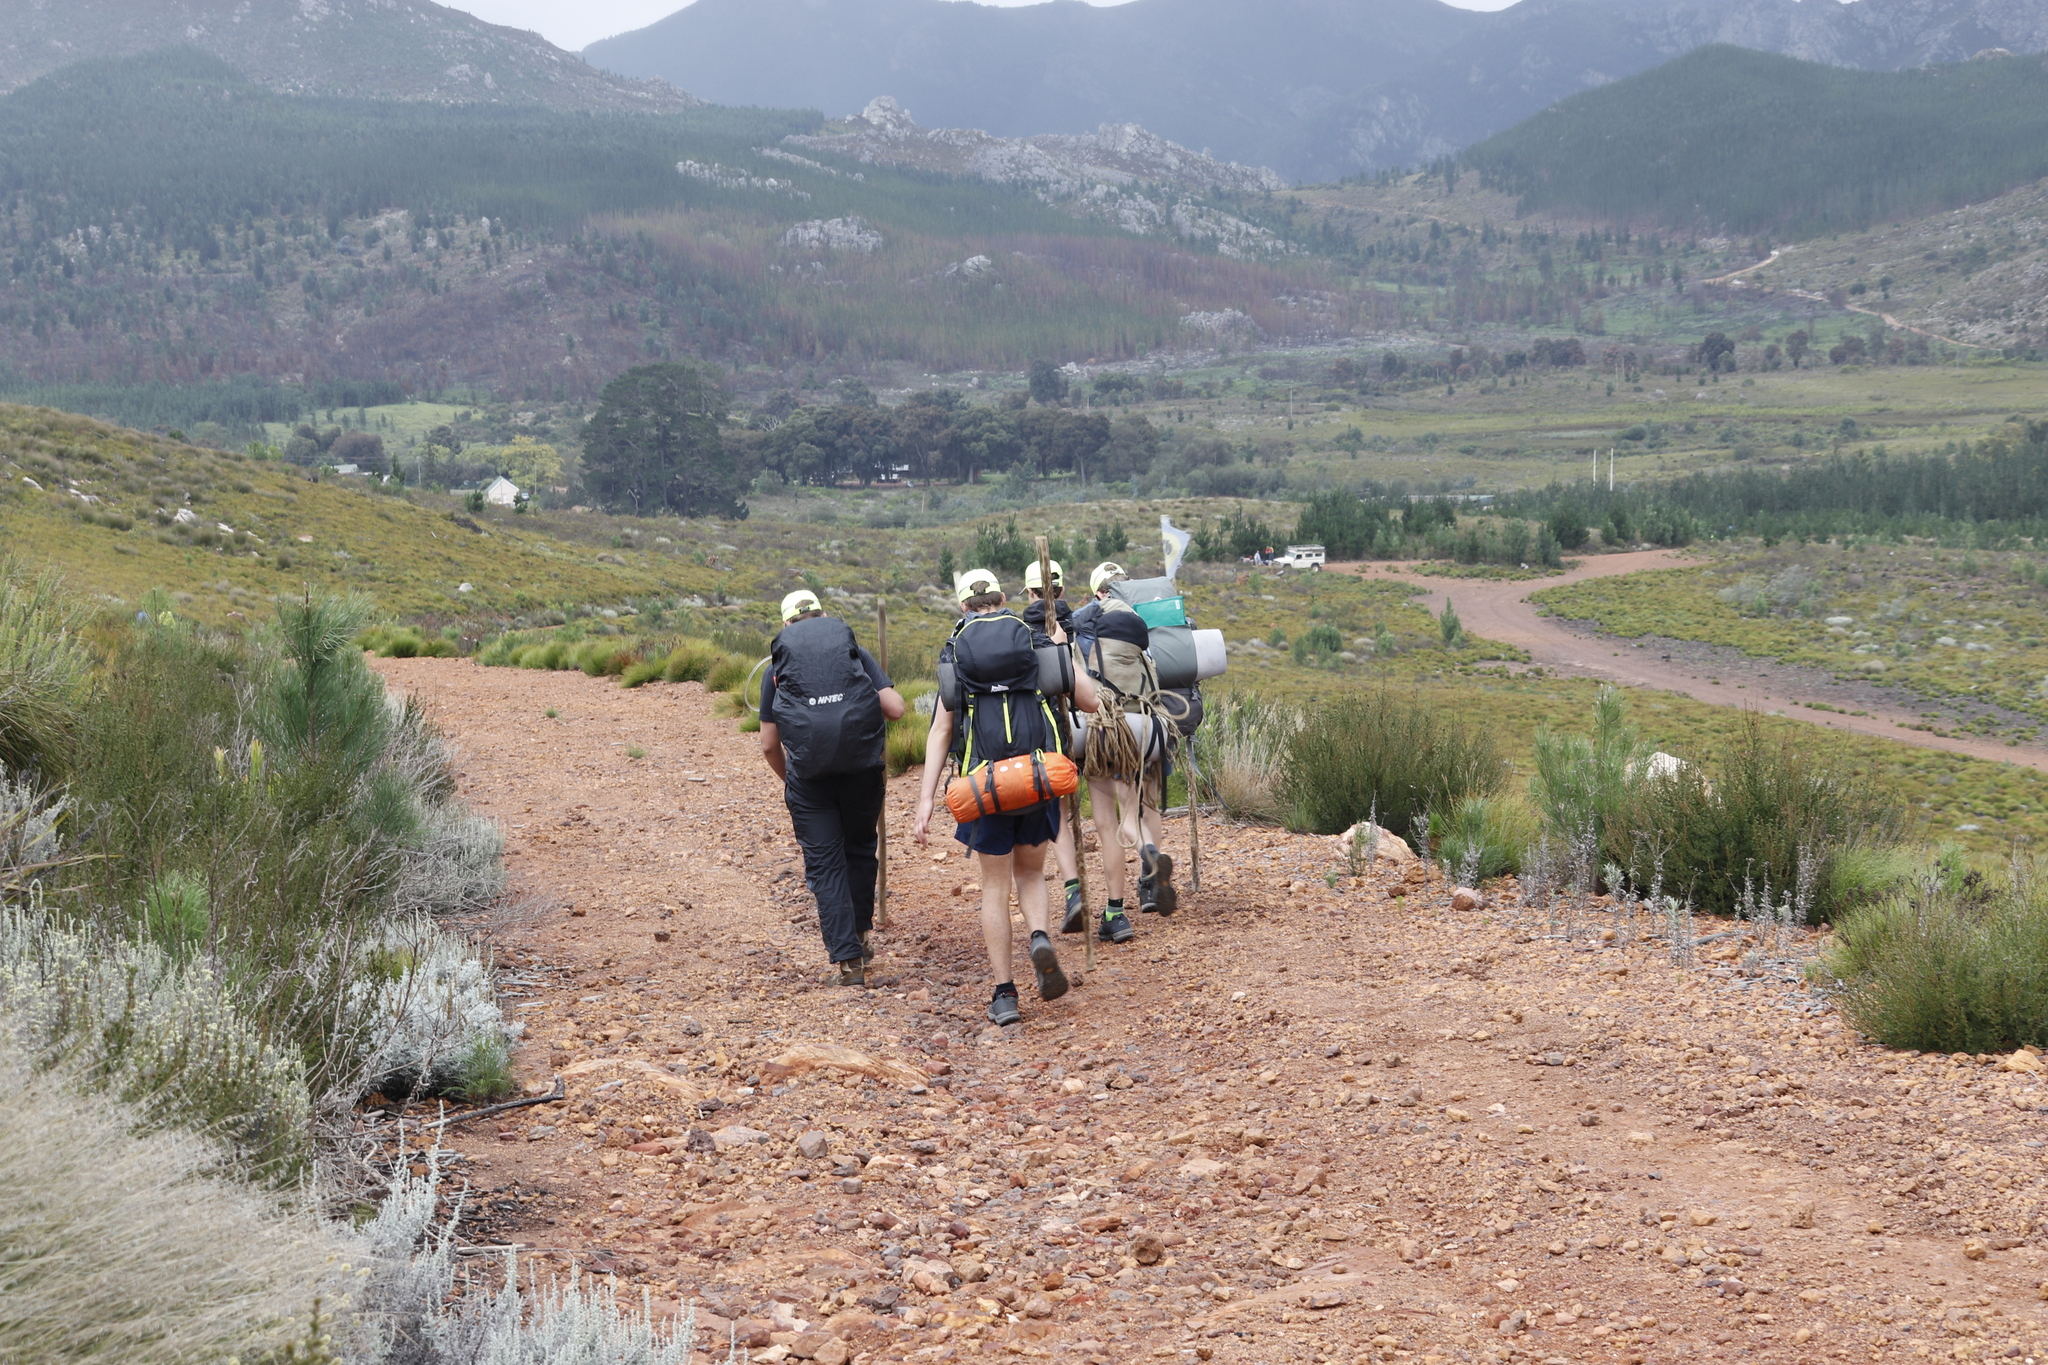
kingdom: Plantae
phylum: Tracheophyta
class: Pinopsida
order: Pinales
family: Pinaceae
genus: Pinus
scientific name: Pinus radiata
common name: Monterey pine
